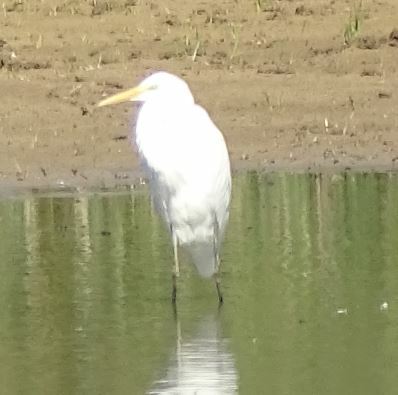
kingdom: Animalia
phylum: Chordata
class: Aves
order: Pelecaniformes
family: Ardeidae
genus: Ardea
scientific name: Ardea alba
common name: Great egret
